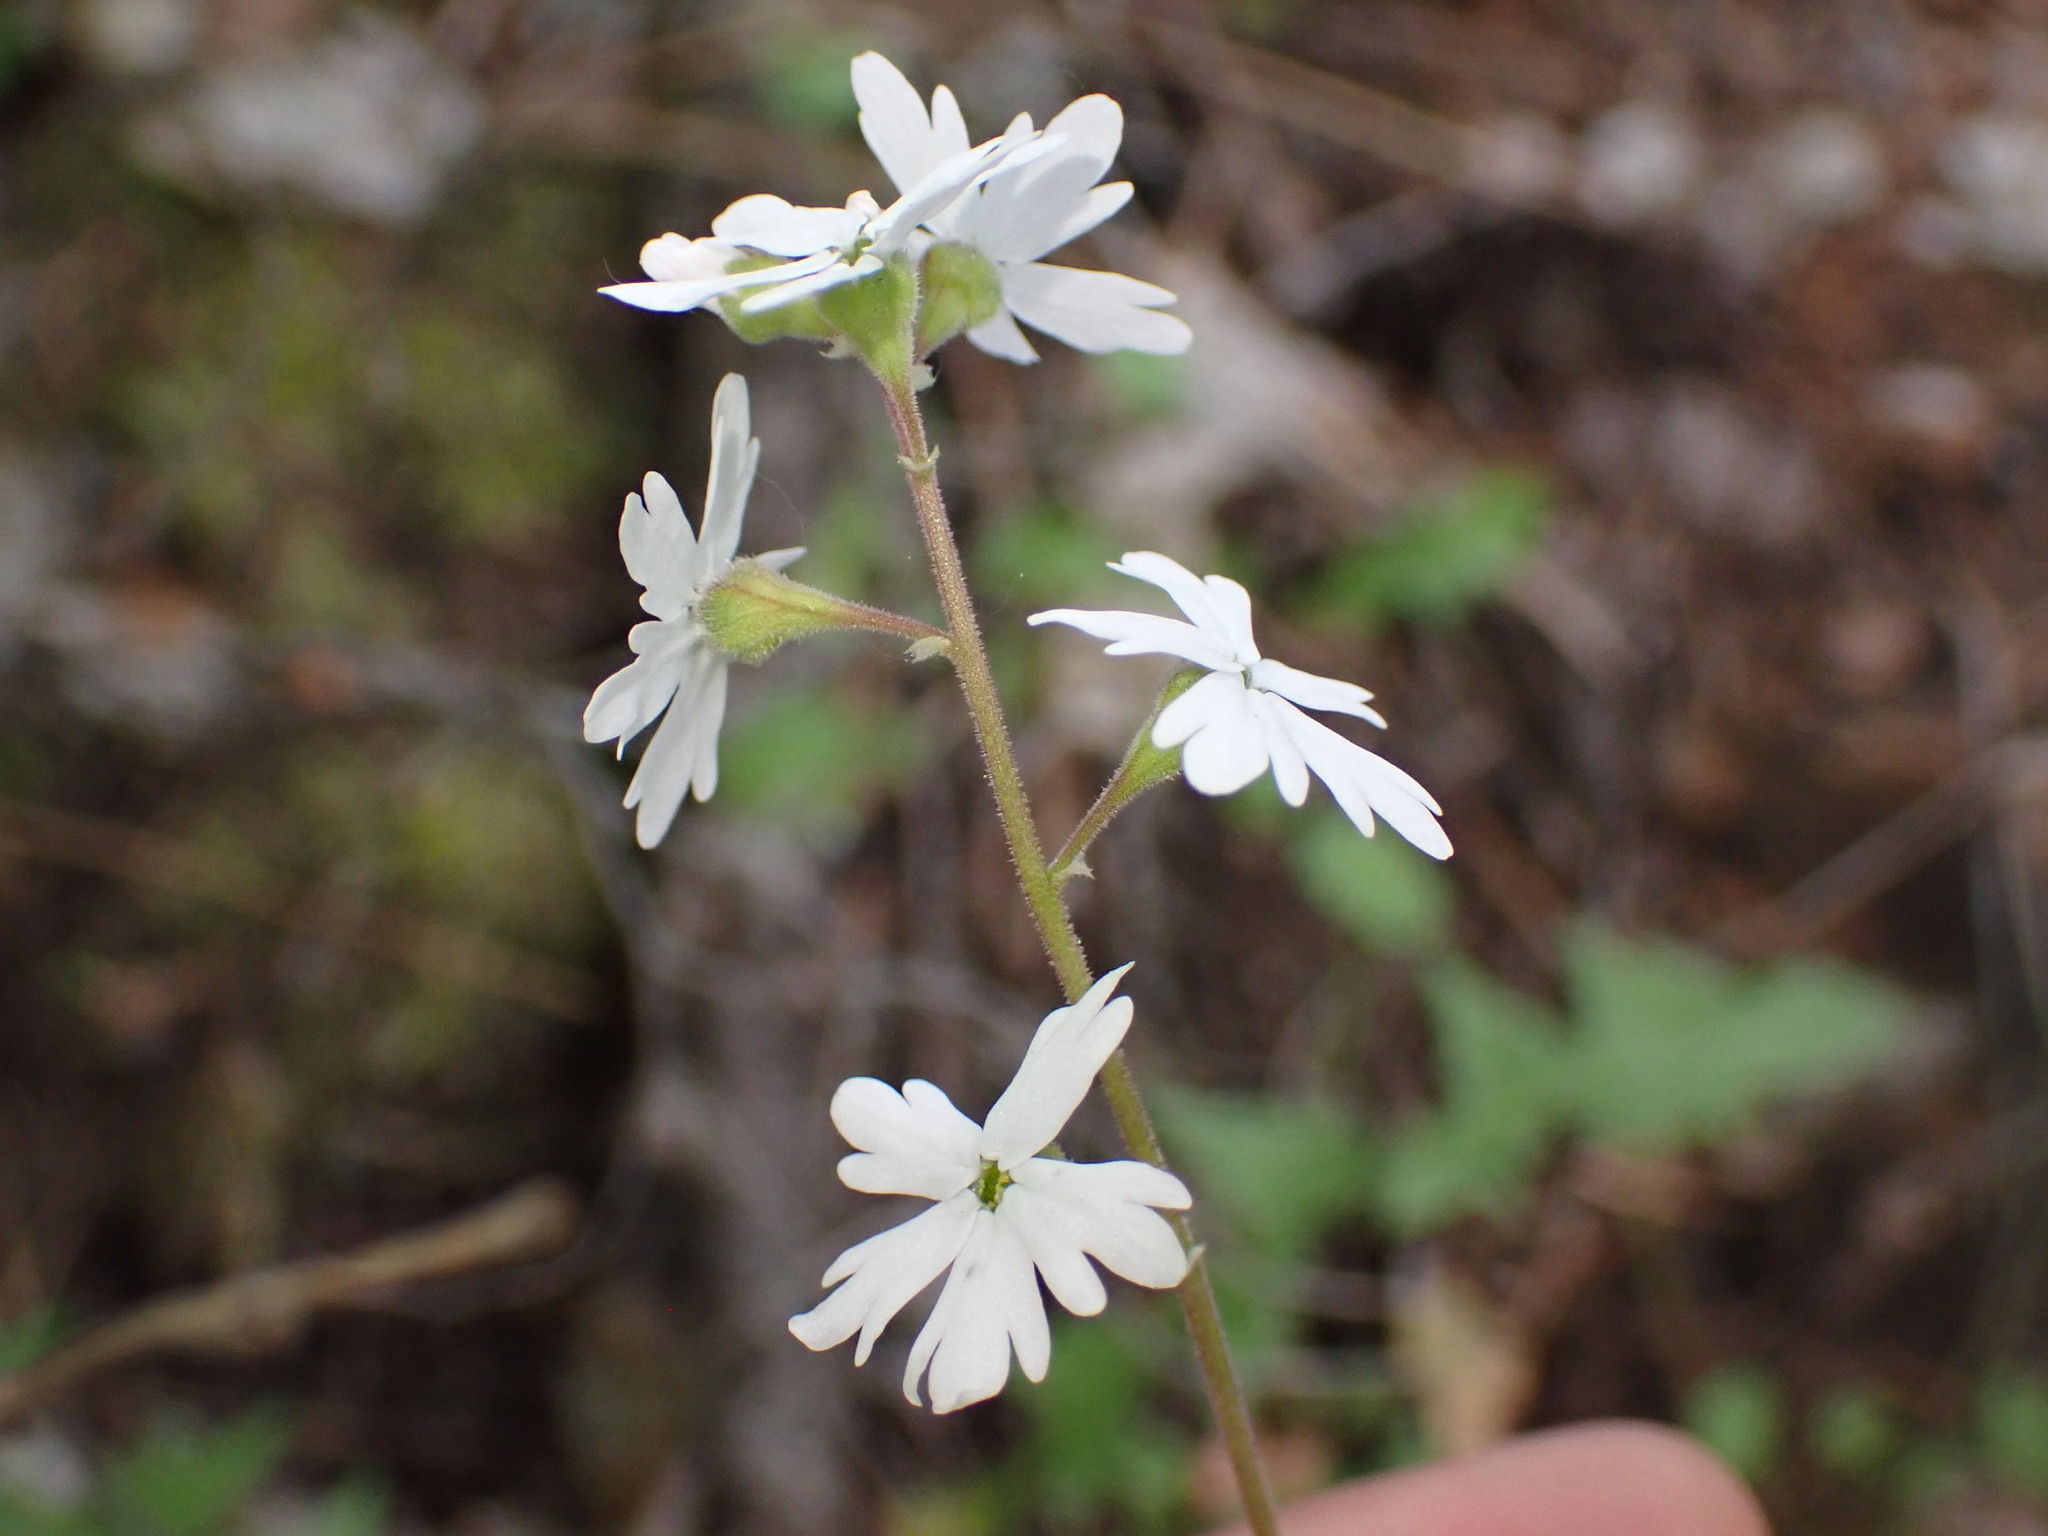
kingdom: Plantae
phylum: Tracheophyta
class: Magnoliopsida
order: Saxifragales
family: Saxifragaceae
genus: Lithophragma
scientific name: Lithophragma parviflorum
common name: Small-flowered fringe-cup
